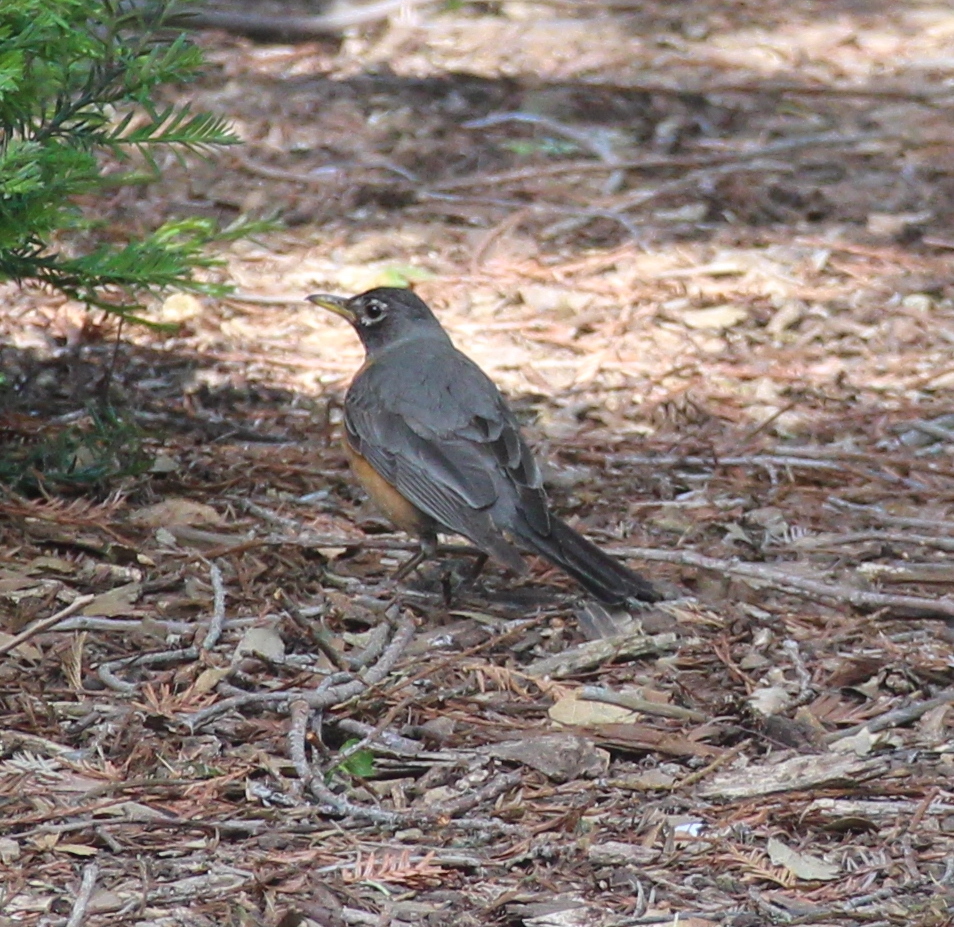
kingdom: Animalia
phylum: Chordata
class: Aves
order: Passeriformes
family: Turdidae
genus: Turdus
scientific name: Turdus migratorius
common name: American robin
